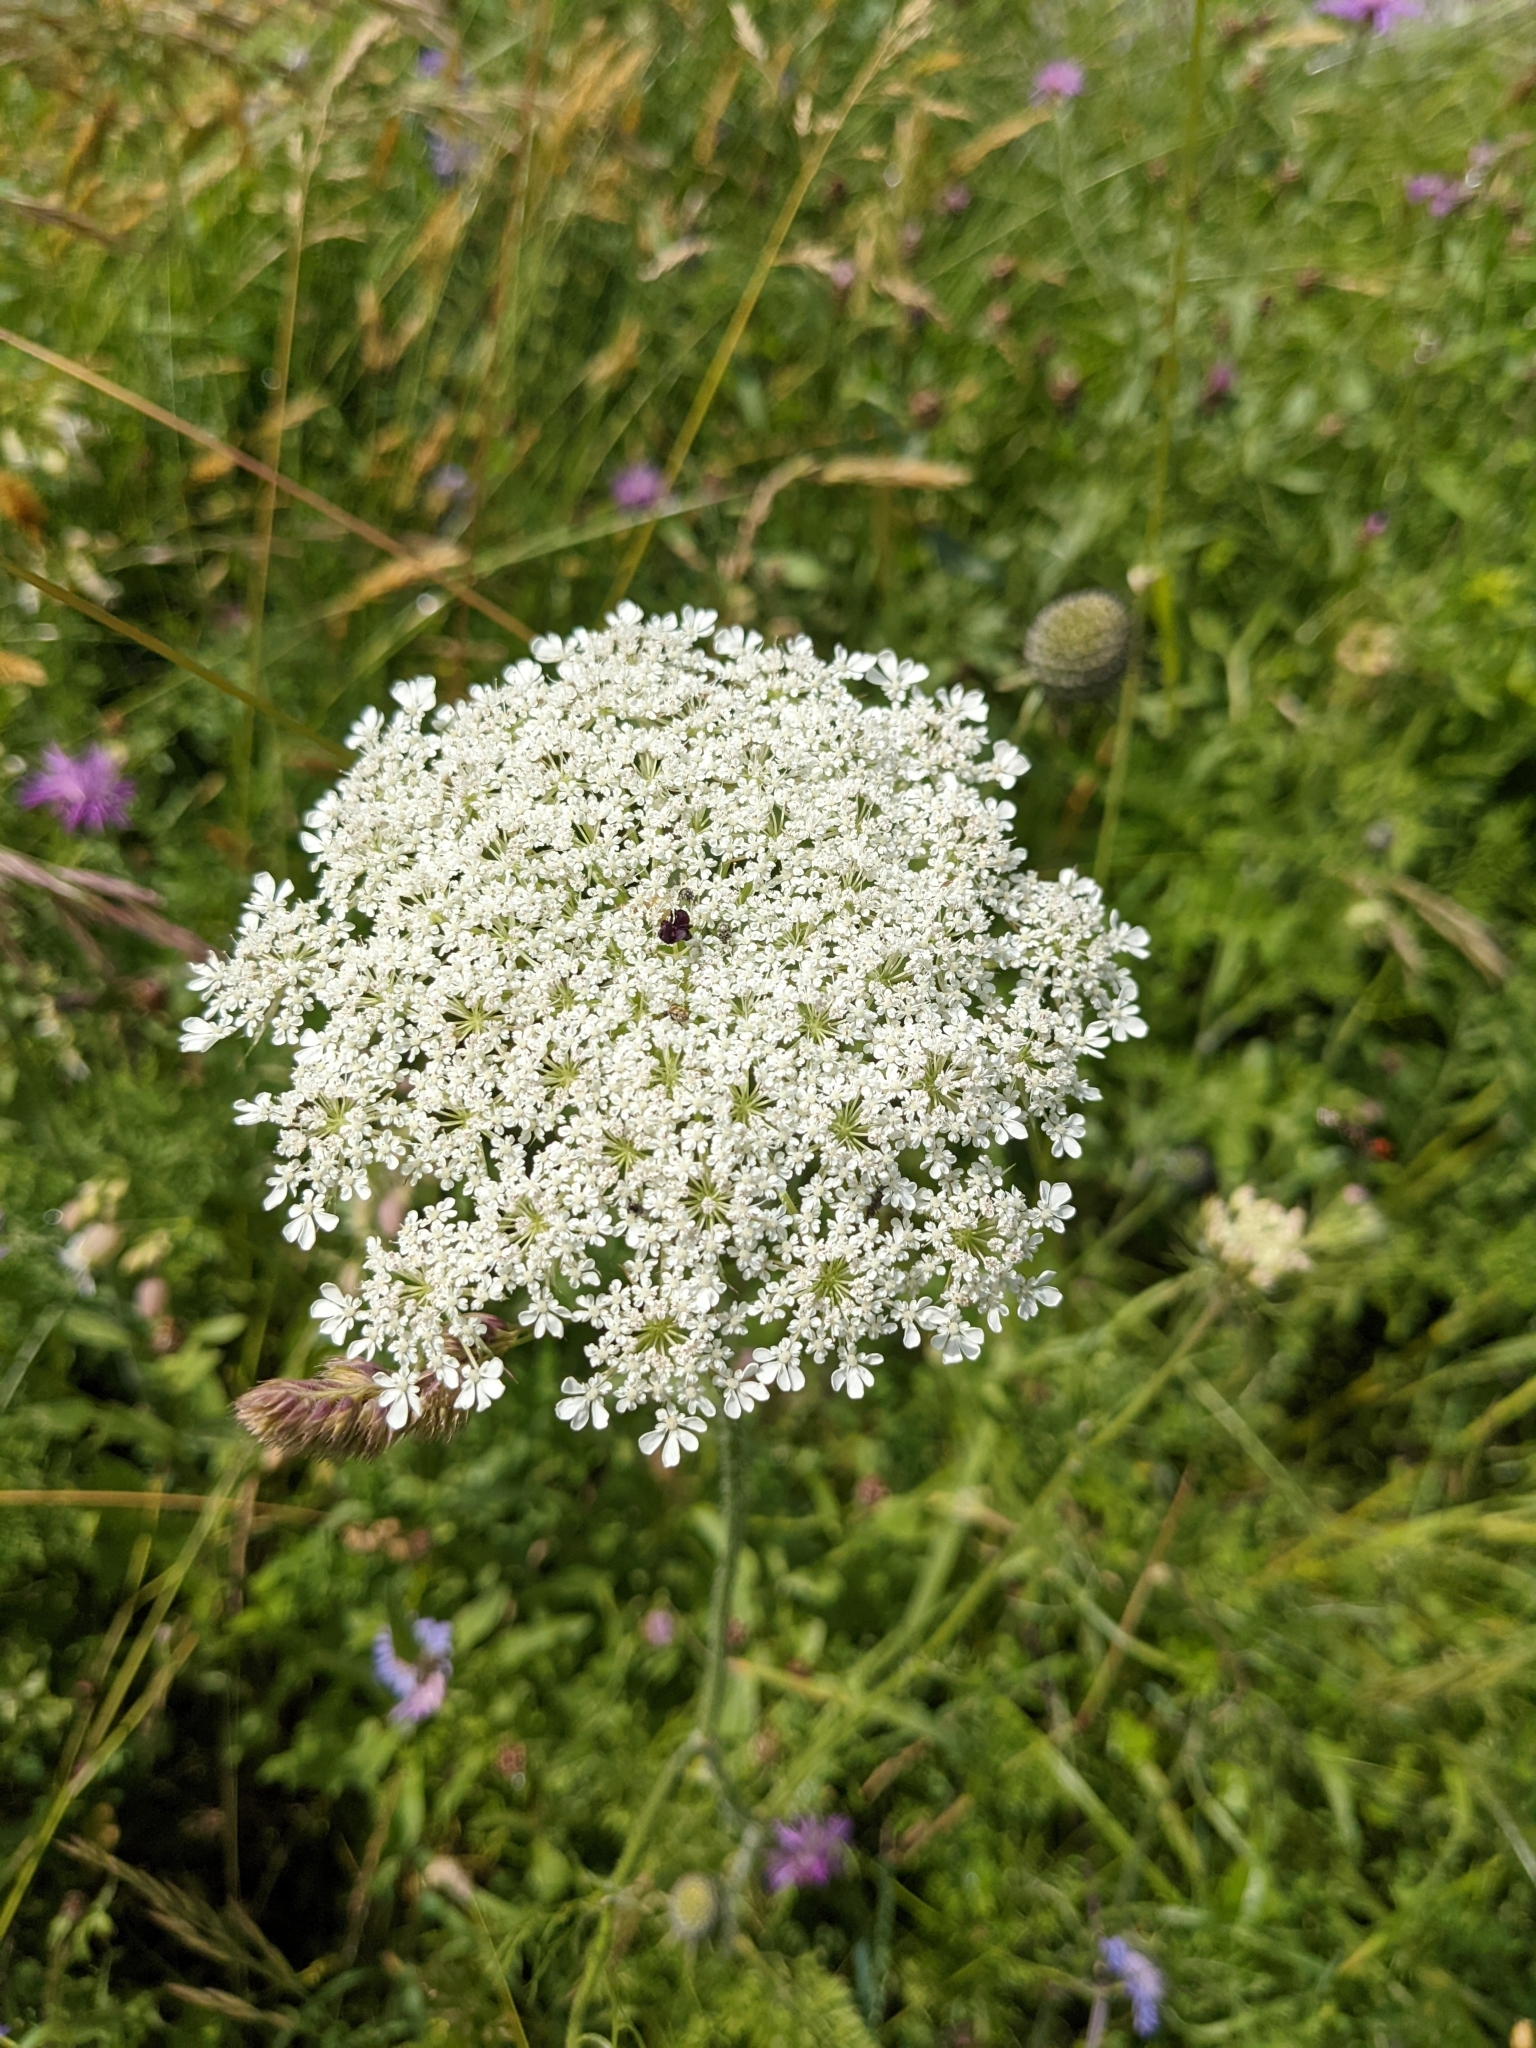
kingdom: Plantae
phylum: Tracheophyta
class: Magnoliopsida
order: Apiales
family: Apiaceae
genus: Daucus
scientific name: Daucus carota
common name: Wild carrot
